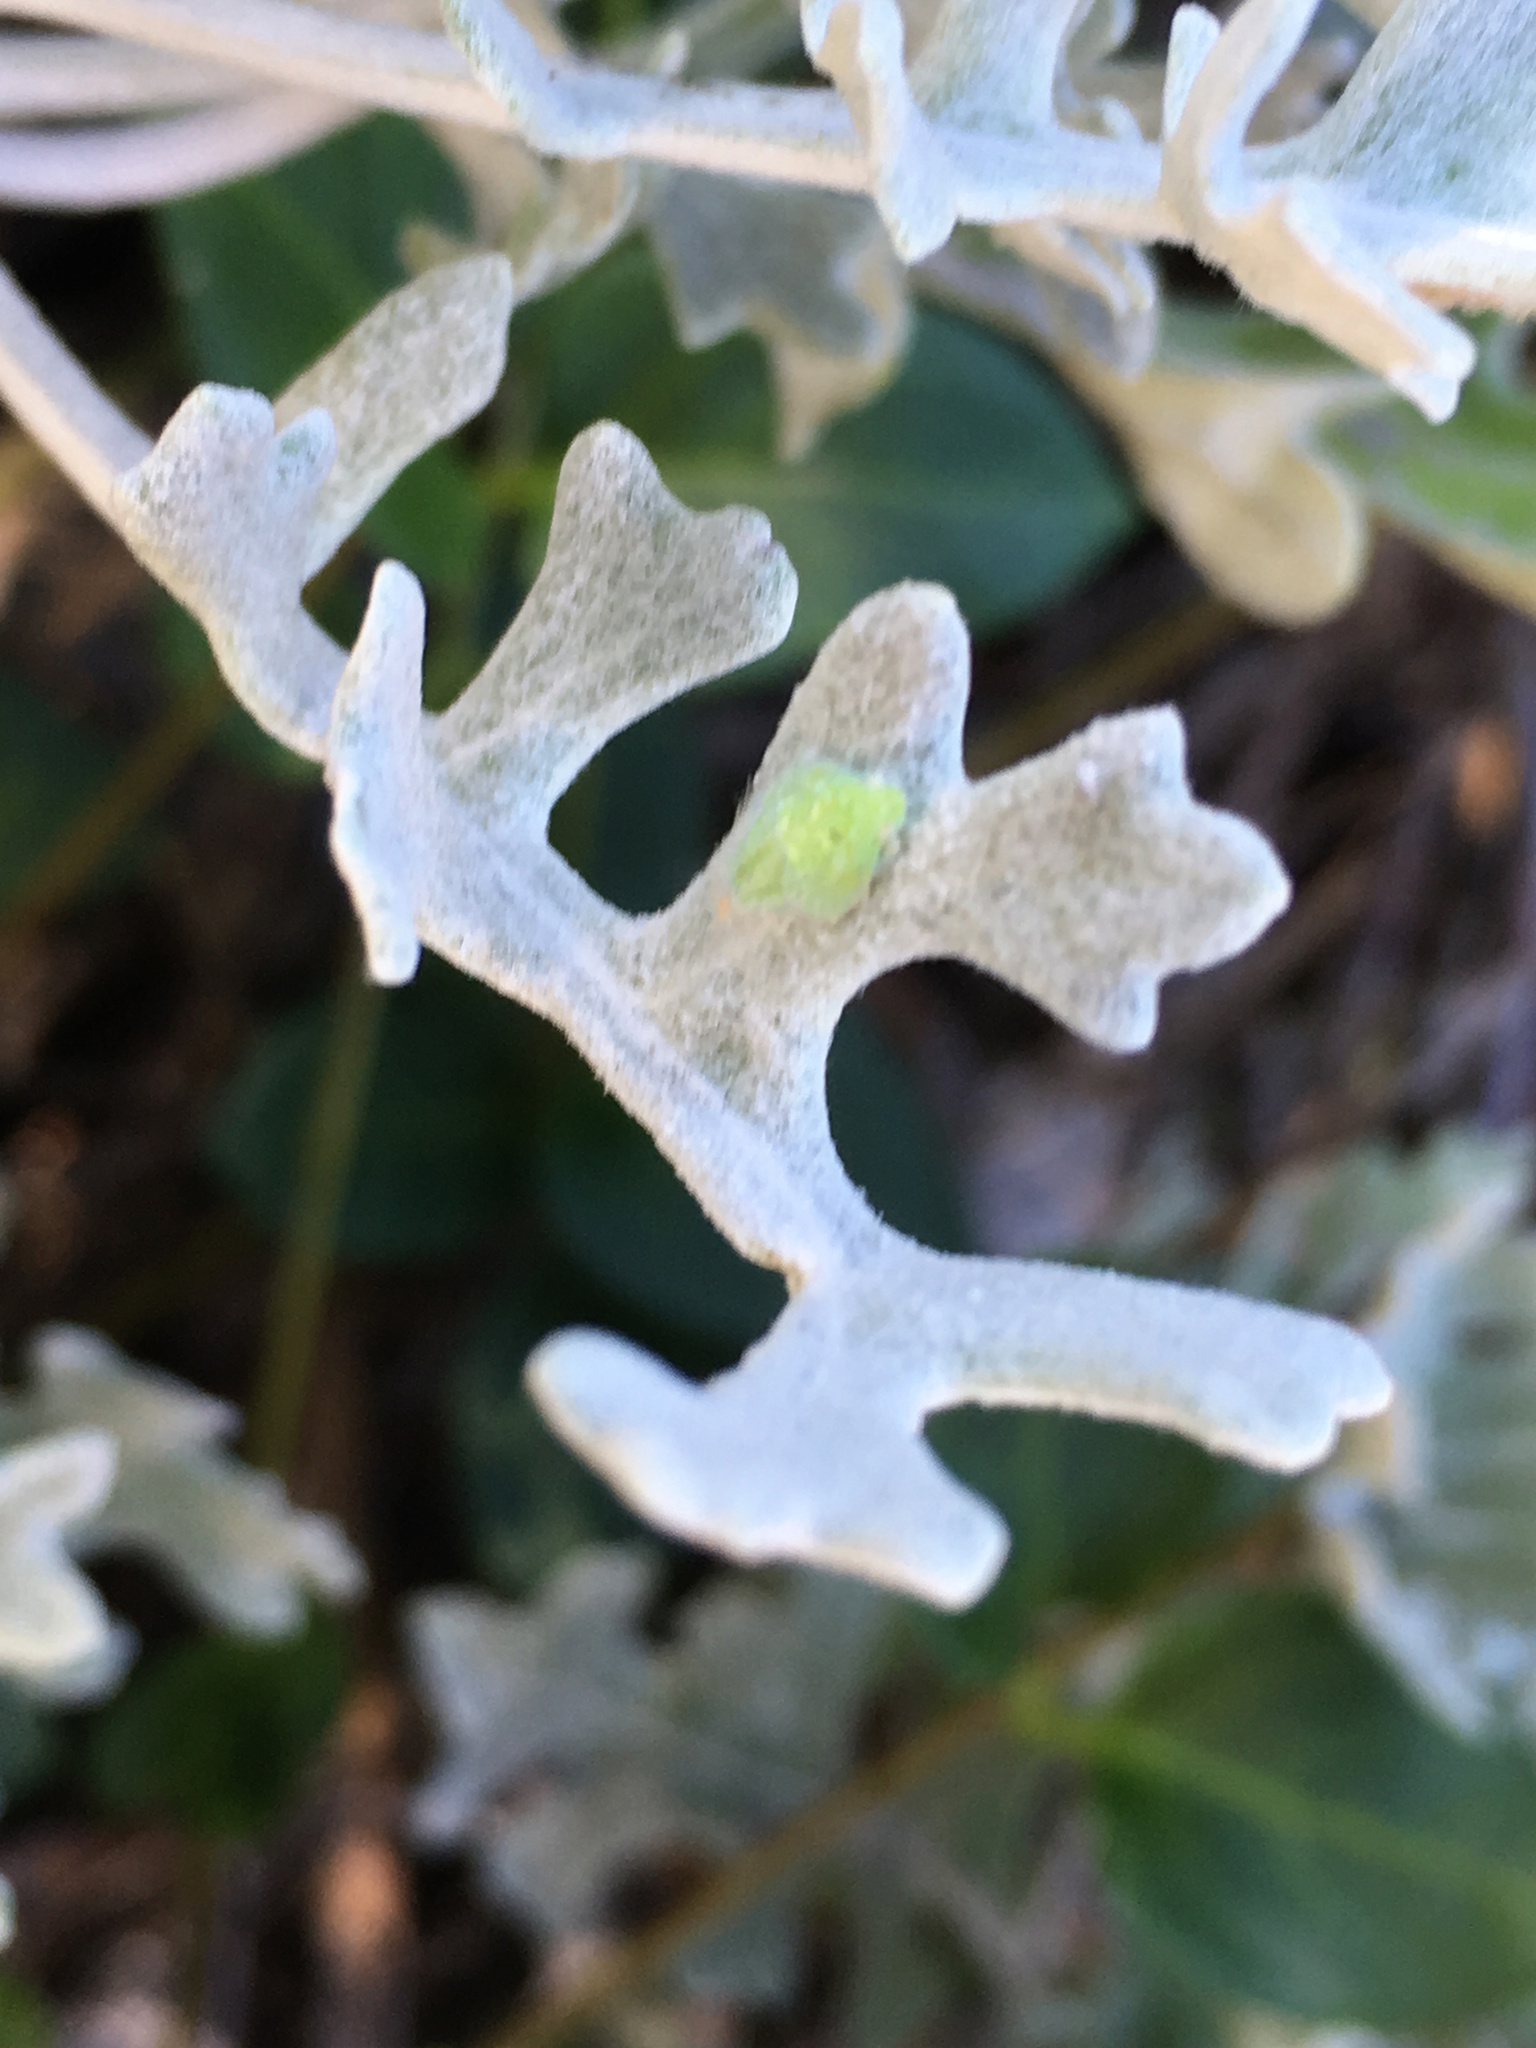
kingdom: Animalia
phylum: Arthropoda
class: Insecta
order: Hemiptera
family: Flatidae
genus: Siphanta
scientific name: Siphanta acuta
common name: Torpedo bug
